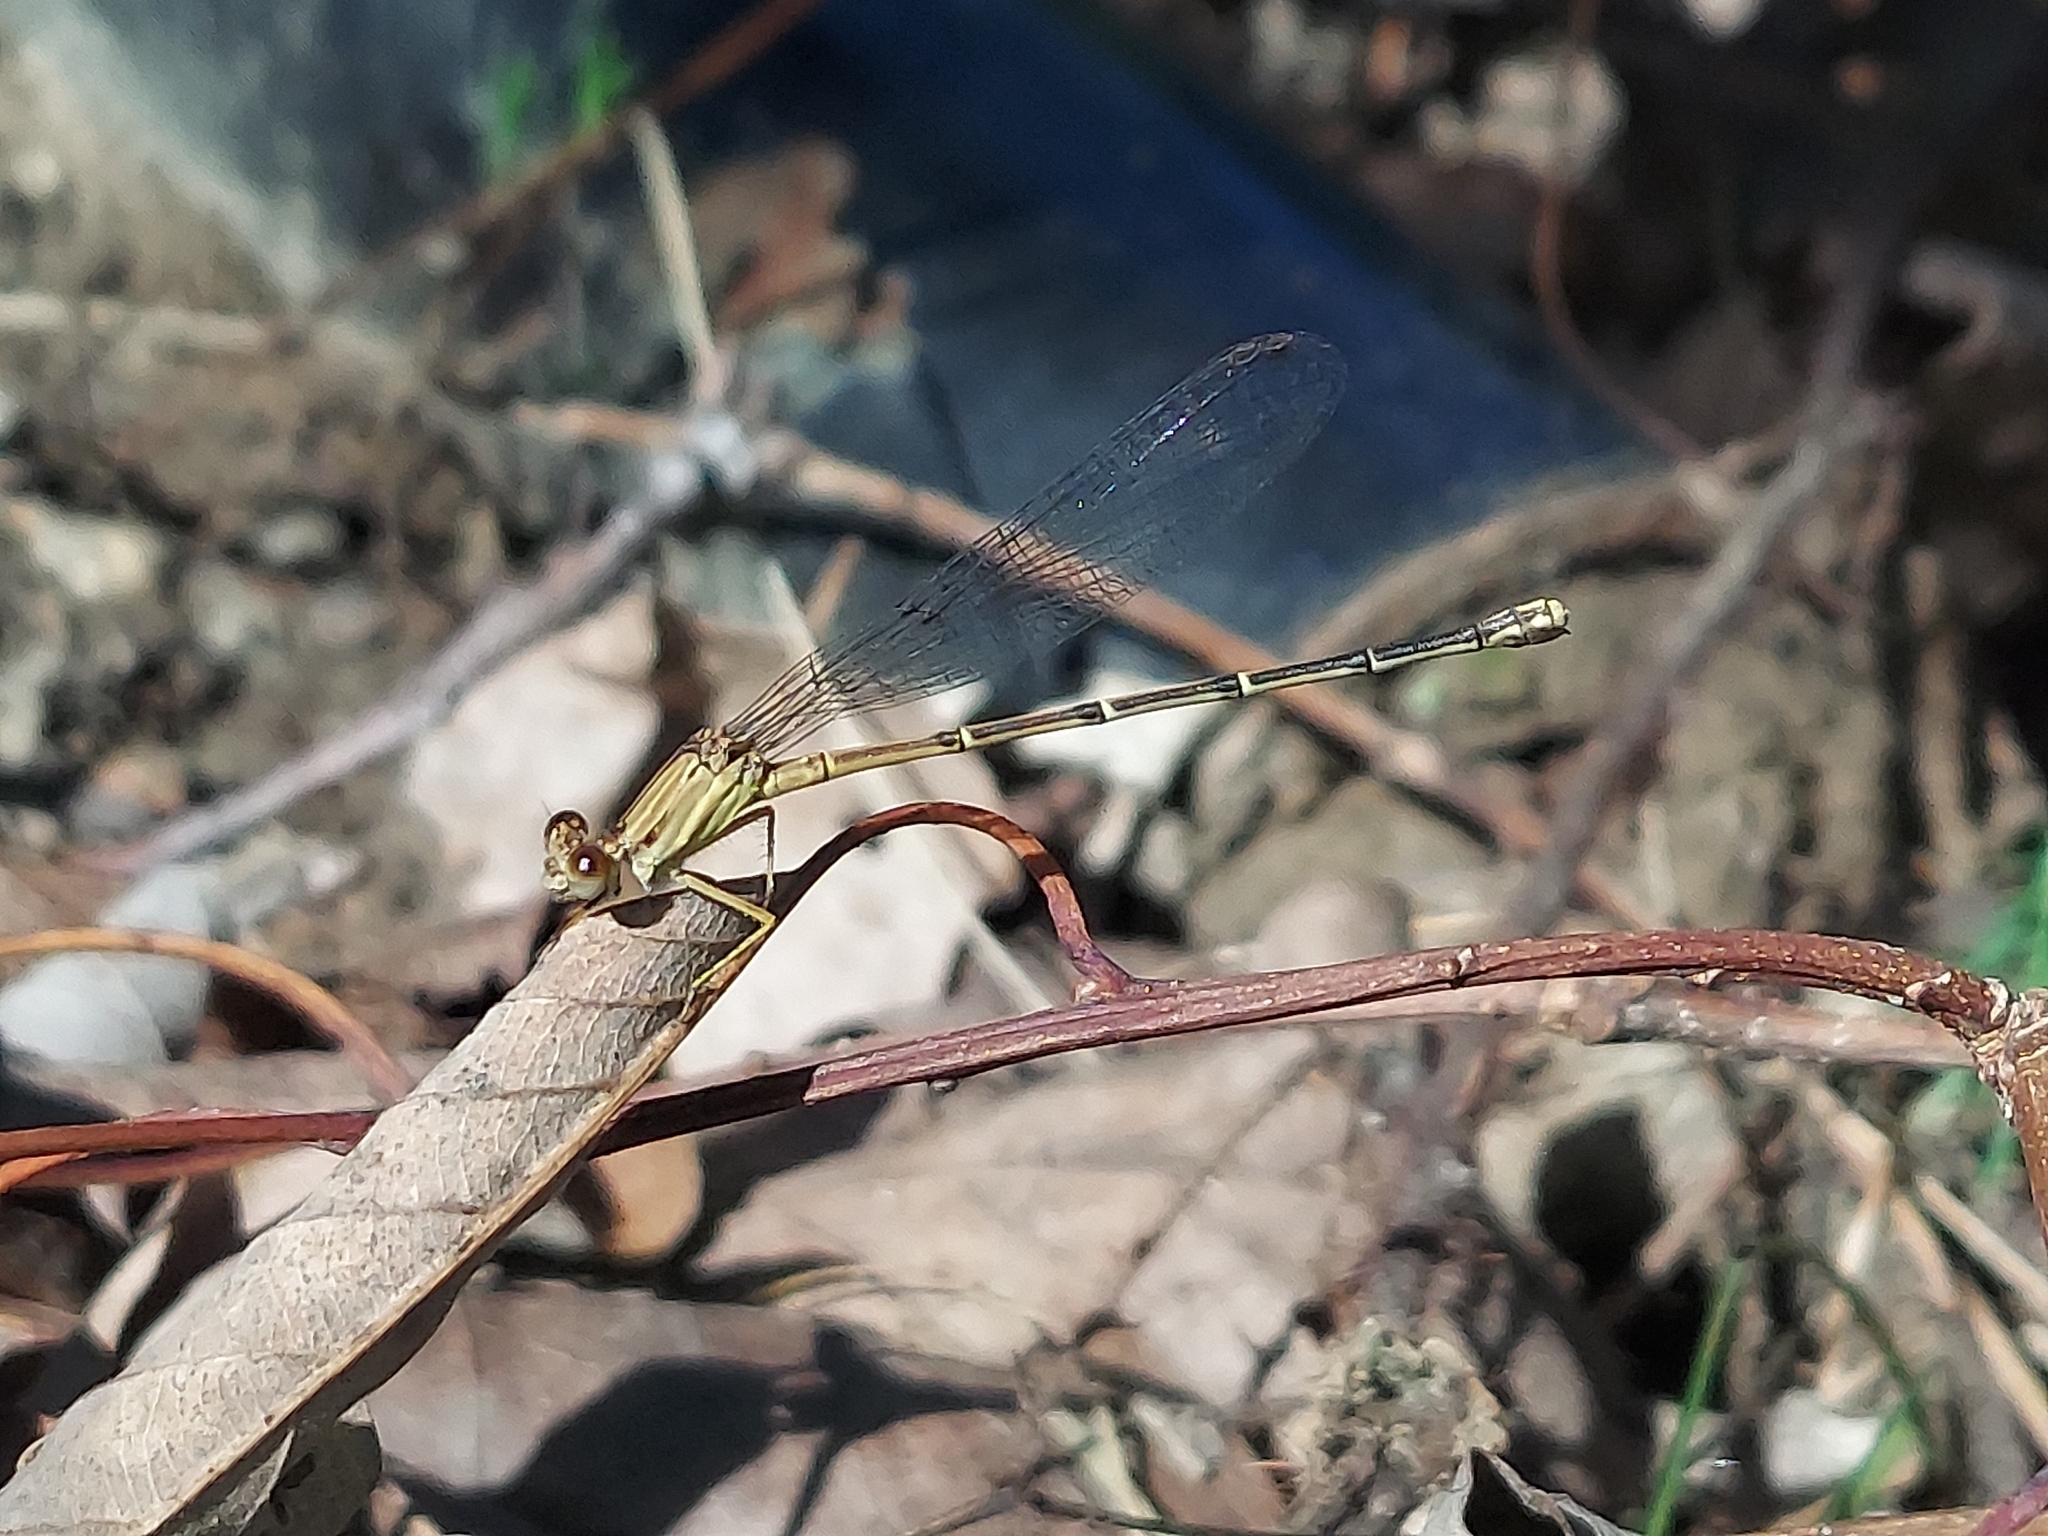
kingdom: Animalia
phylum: Arthropoda
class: Insecta
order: Odonata
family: Coenagrionidae
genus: Argia
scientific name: Argia apicalis
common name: Blue-fronted dancer
